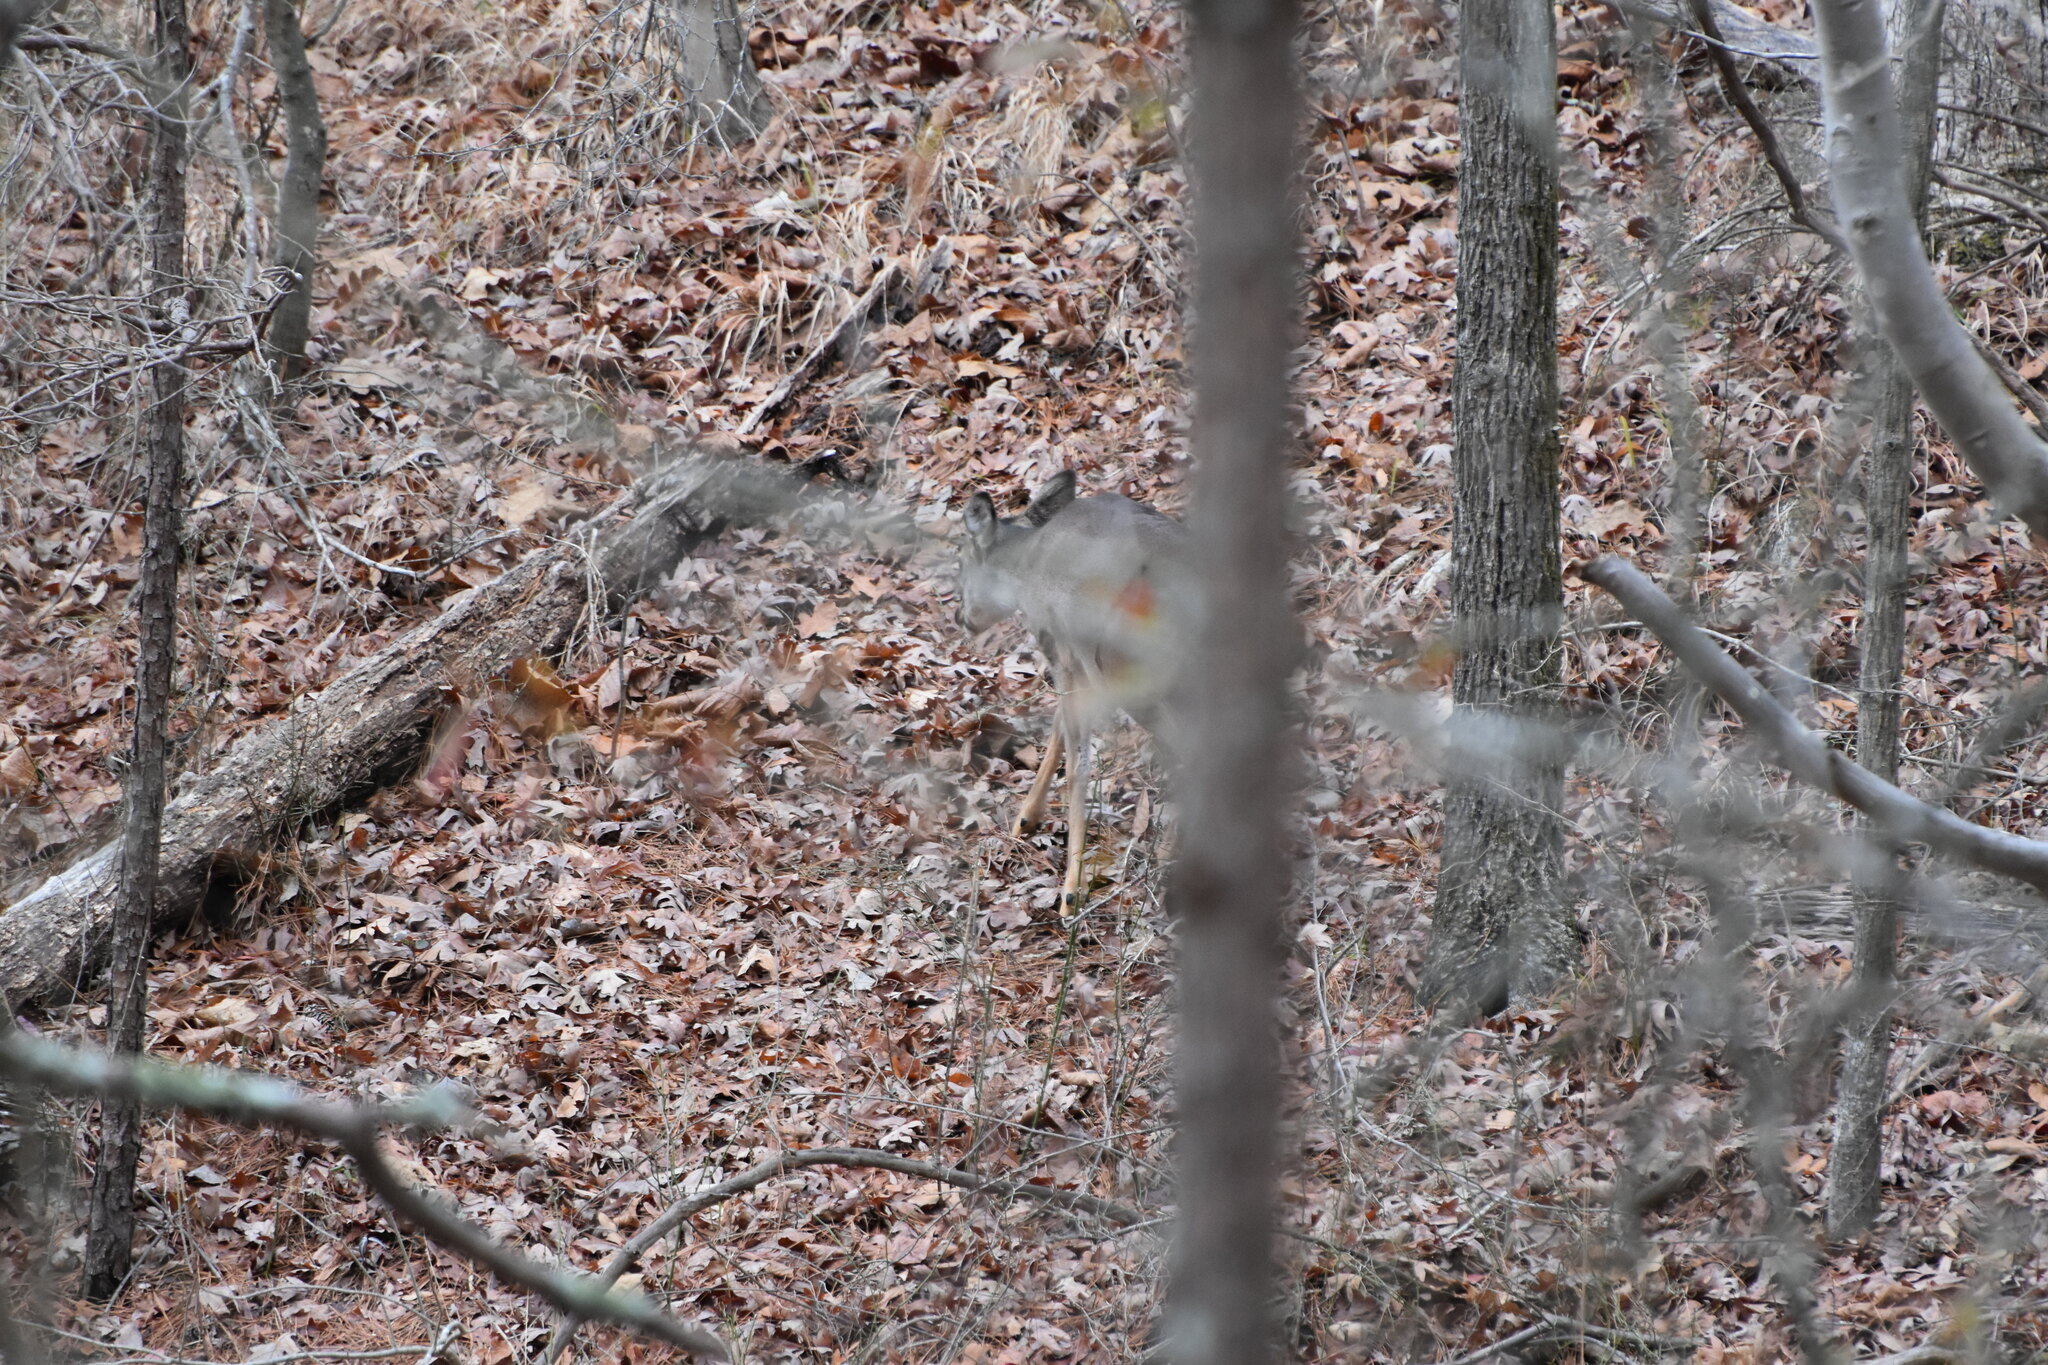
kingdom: Animalia
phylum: Chordata
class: Mammalia
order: Artiodactyla
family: Cervidae
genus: Odocoileus
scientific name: Odocoileus virginianus
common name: White-tailed deer
